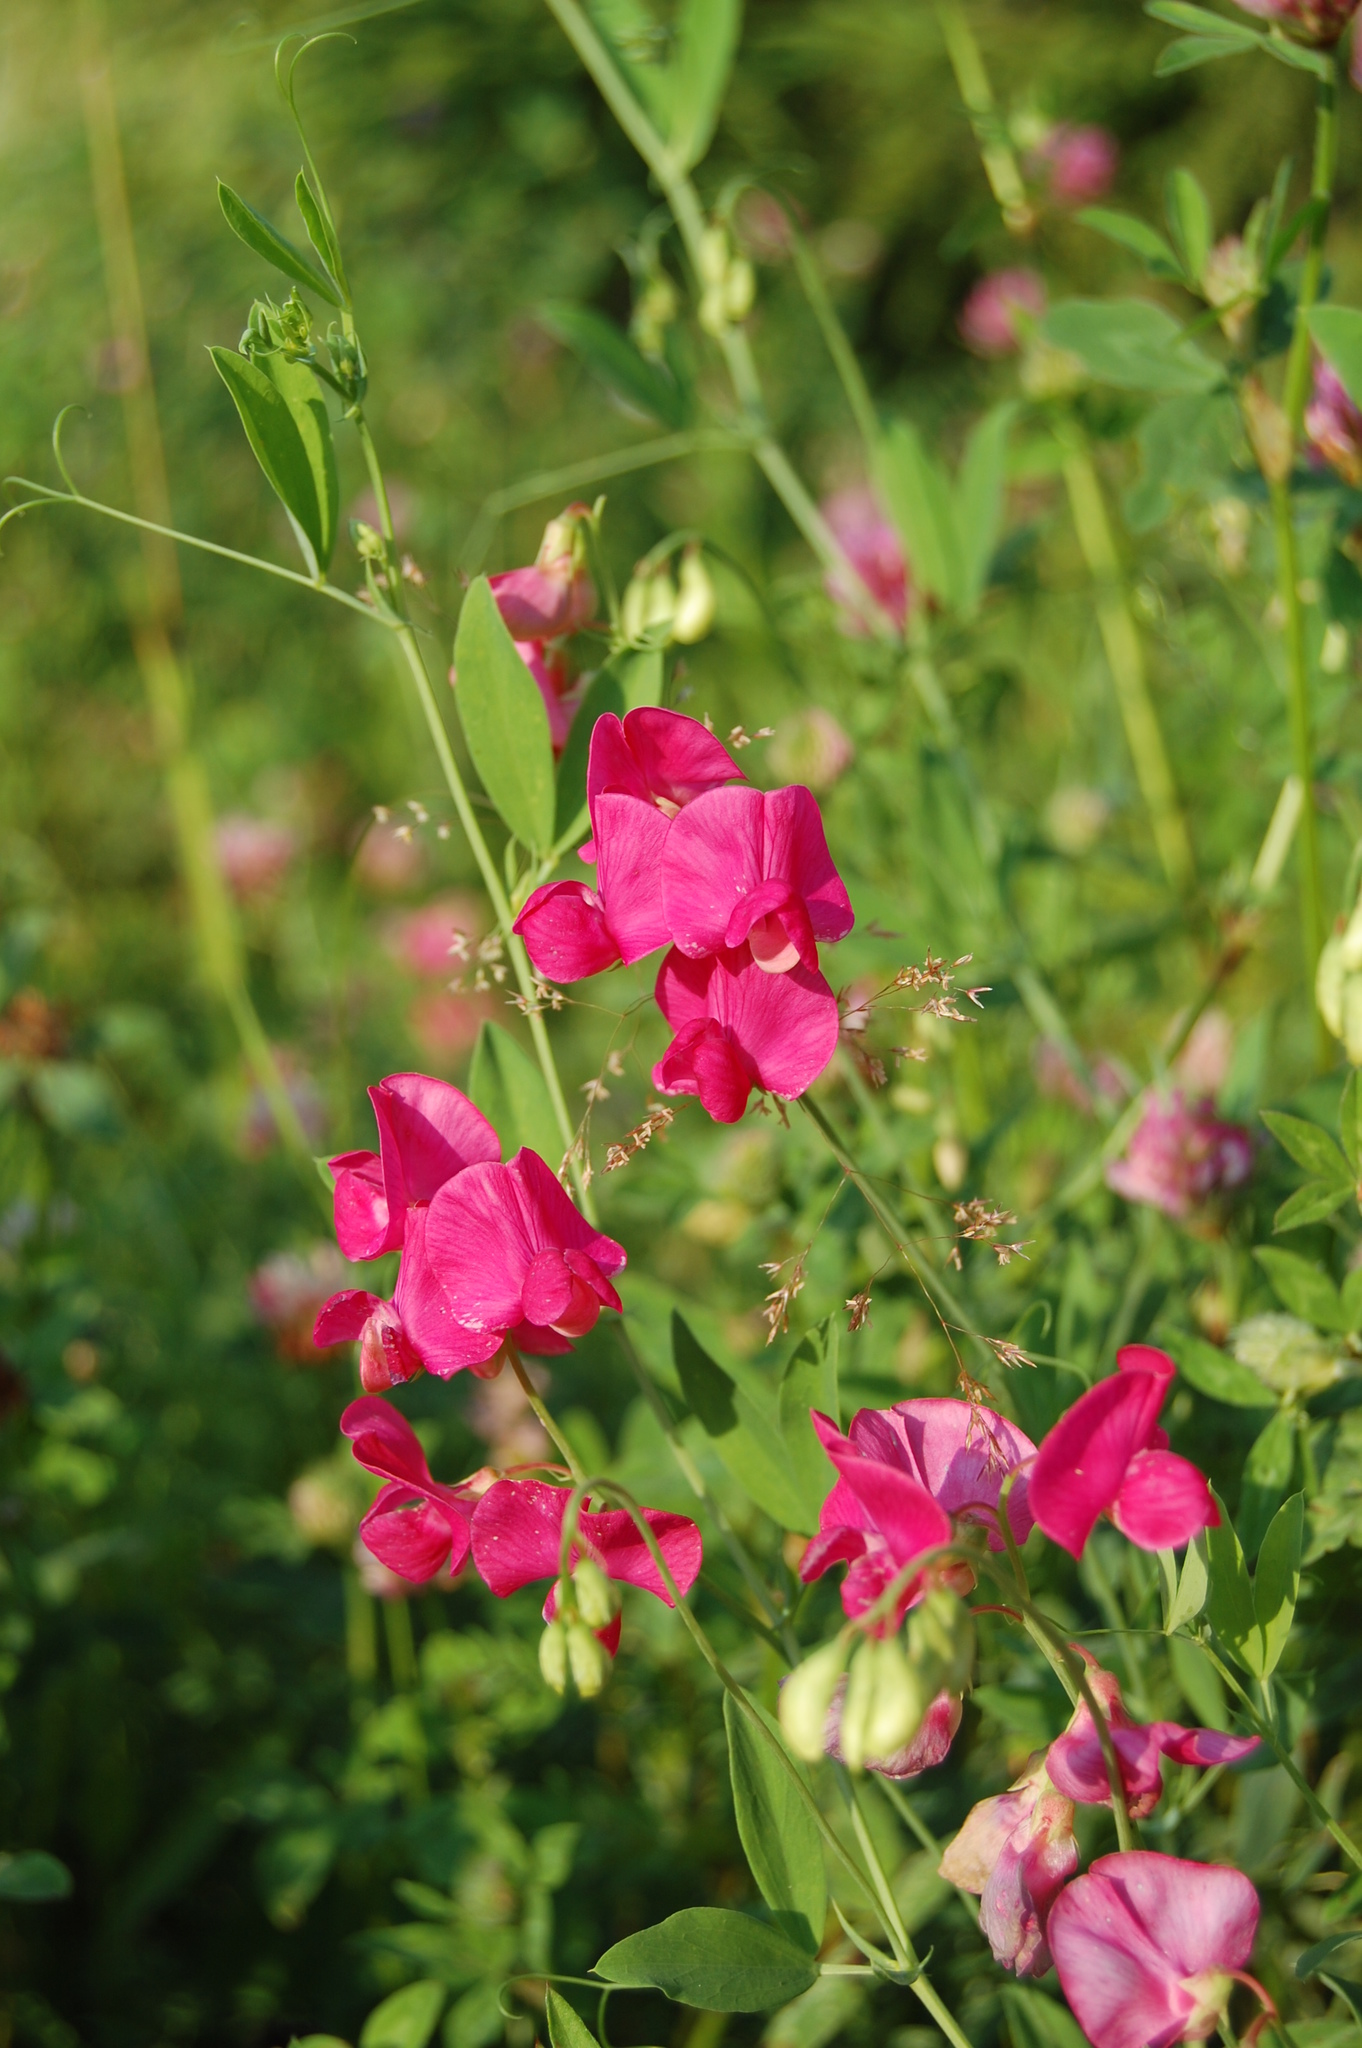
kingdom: Plantae
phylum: Tracheophyta
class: Magnoliopsida
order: Fabales
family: Fabaceae
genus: Lathyrus
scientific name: Lathyrus tuberosus
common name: Tuberous pea
